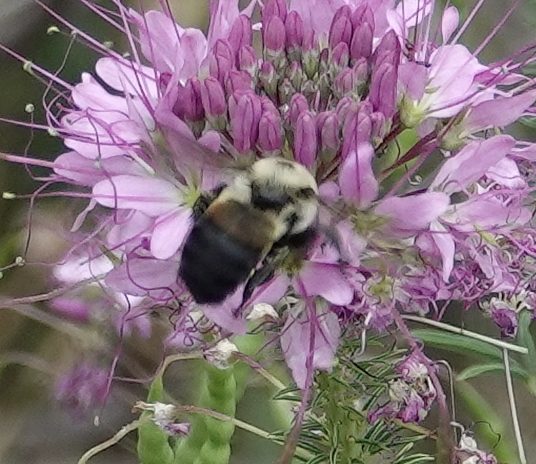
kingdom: Animalia
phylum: Arthropoda
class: Insecta
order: Hymenoptera
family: Apidae
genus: Bombus
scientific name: Bombus griseocollis
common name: Brown-belted bumble bee
